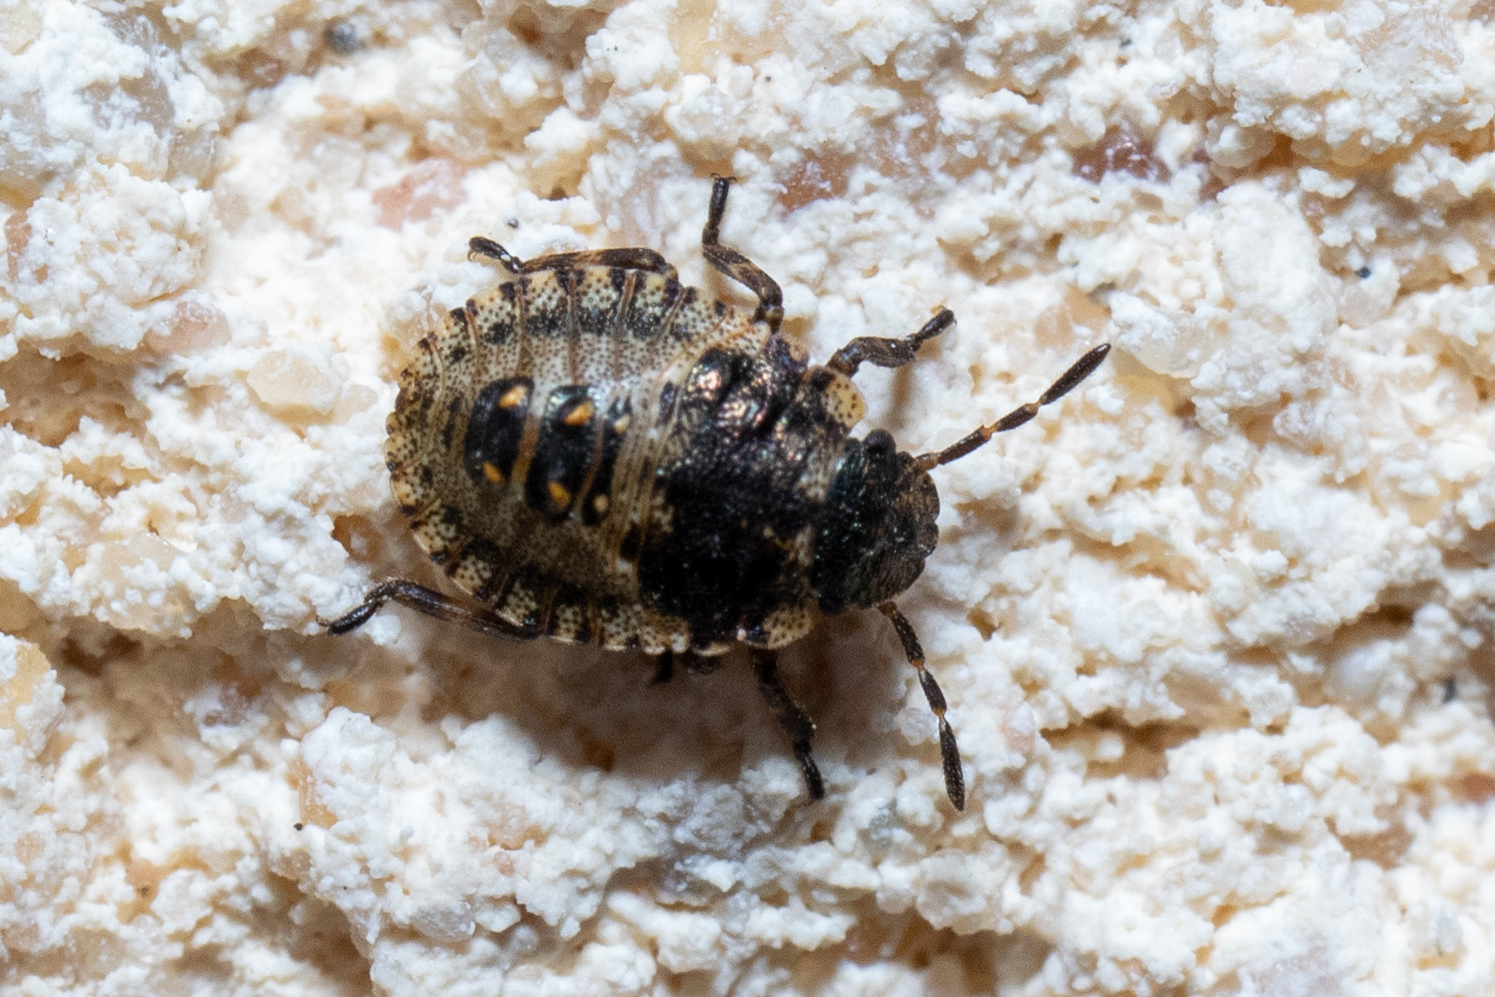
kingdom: Animalia
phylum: Arthropoda
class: Insecta
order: Hemiptera
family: Pentatomidae
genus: Pentatoma
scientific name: Pentatoma rufipes
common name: Forest bug
